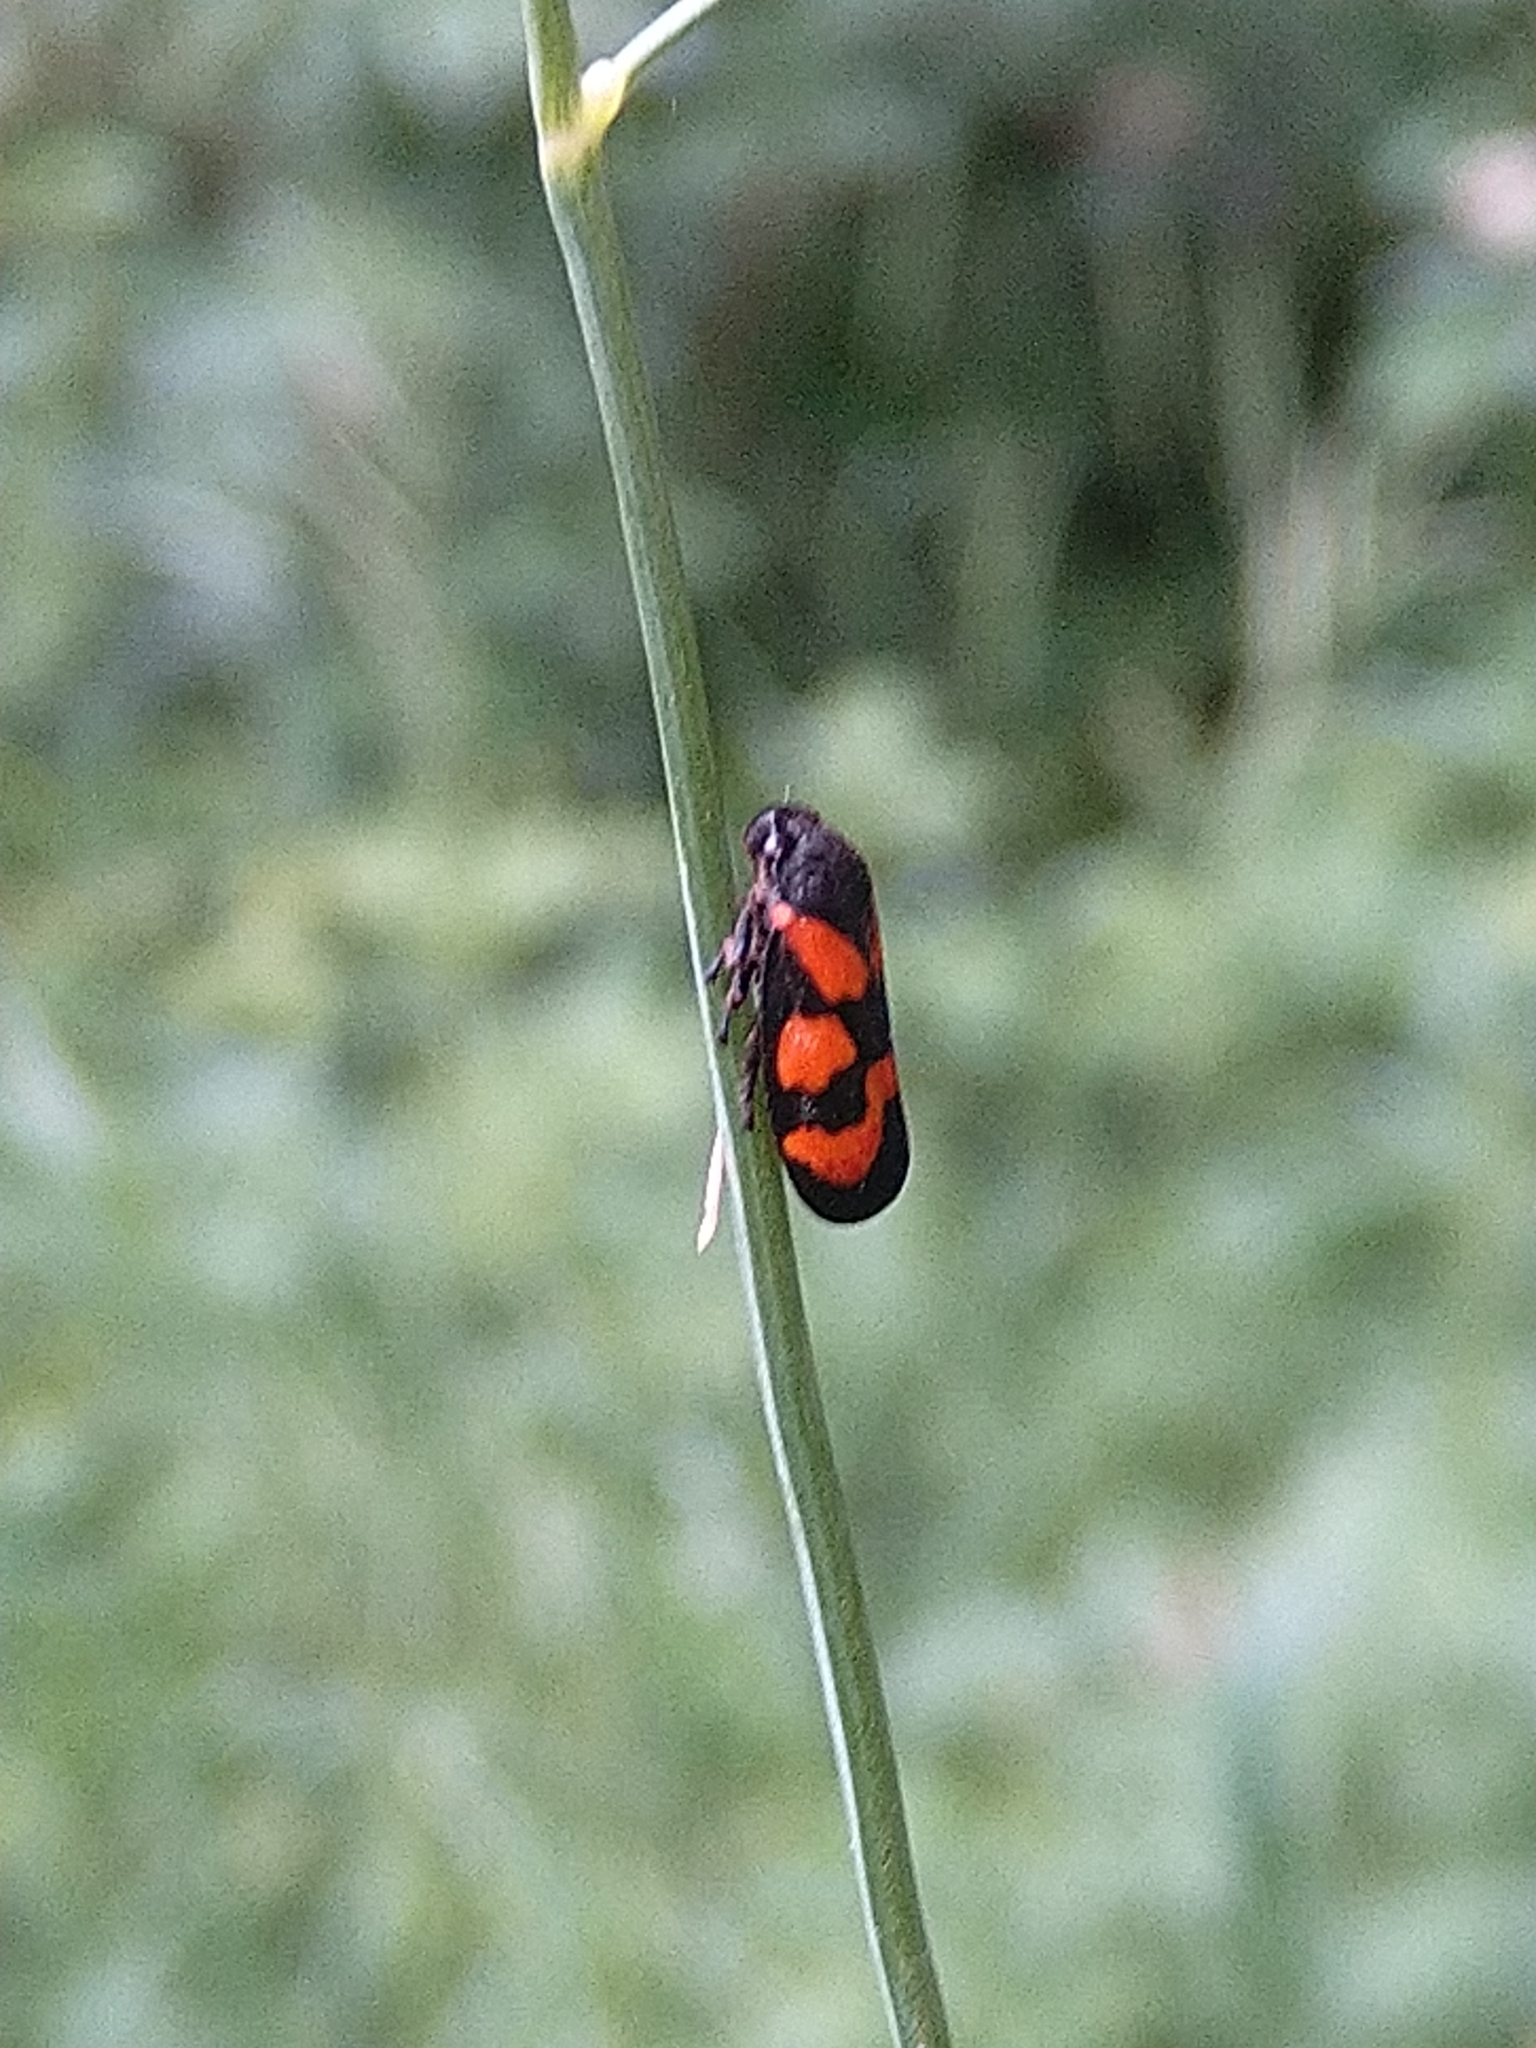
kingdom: Animalia
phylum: Arthropoda
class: Insecta
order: Hemiptera
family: Cercopidae
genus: Cercopis
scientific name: Cercopis vulnerata
